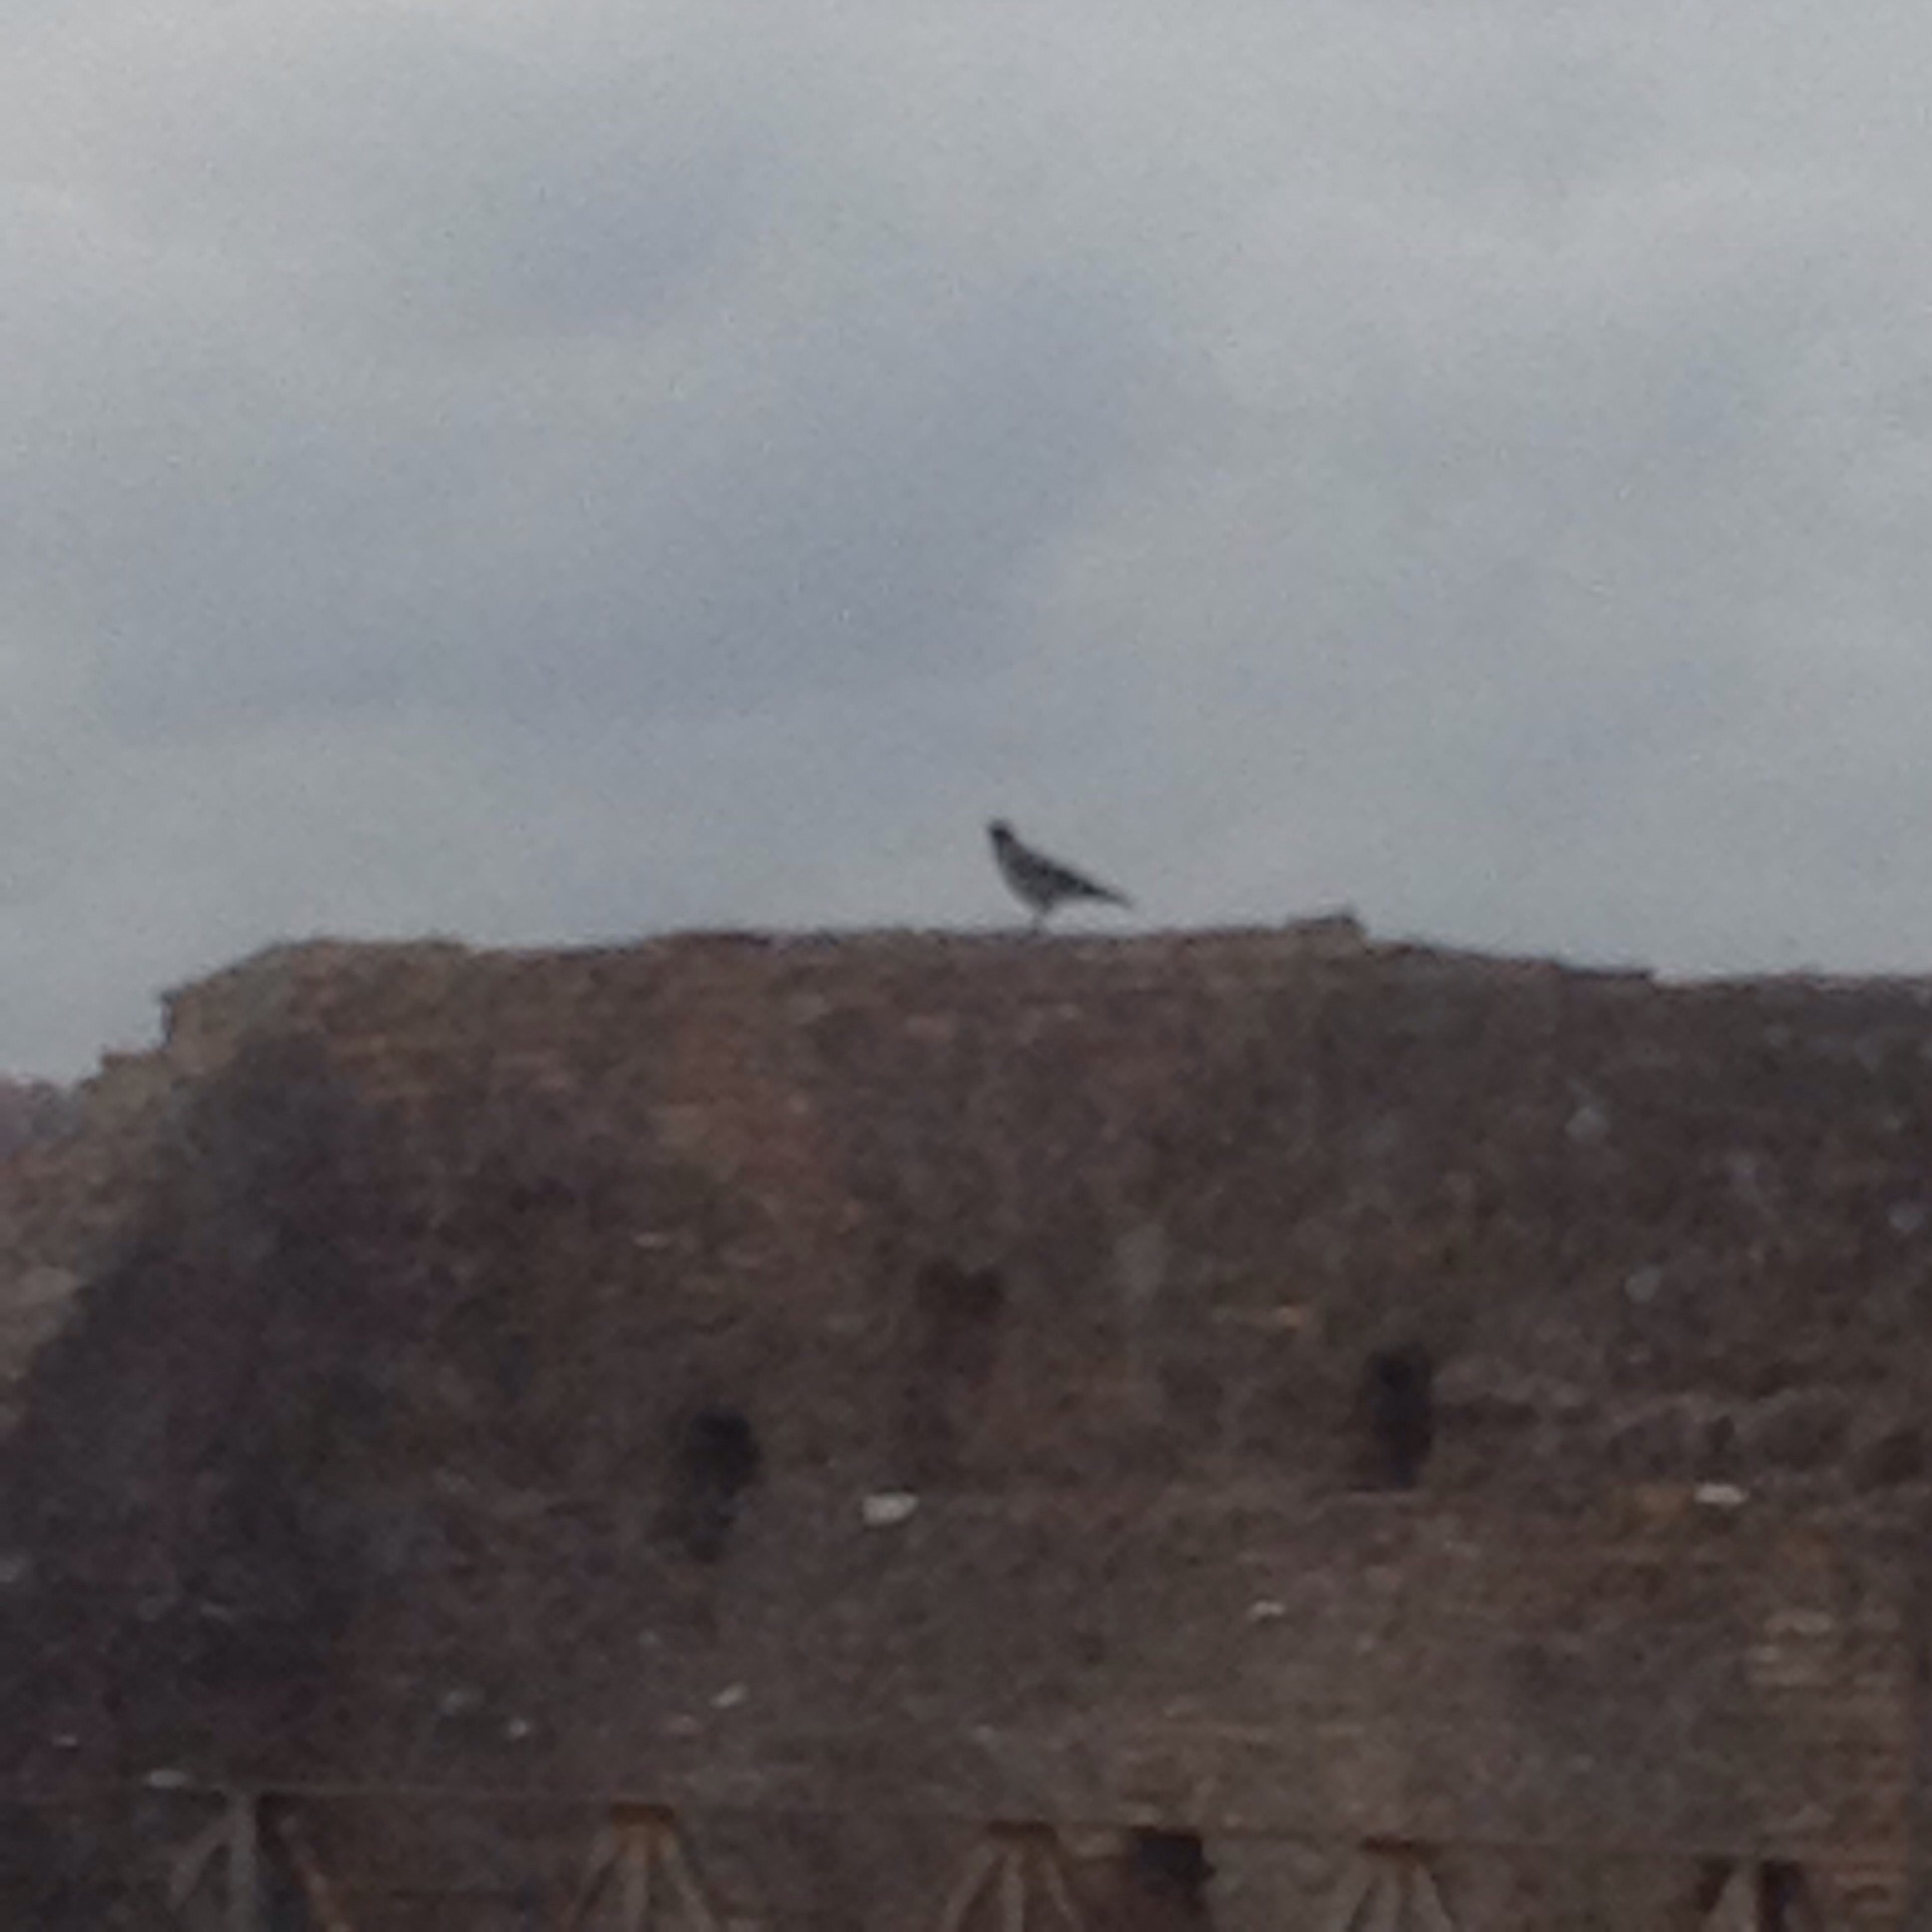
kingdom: Animalia
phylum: Chordata
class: Aves
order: Passeriformes
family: Corvidae
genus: Corvus
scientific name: Corvus cornix
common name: Hooded crow
